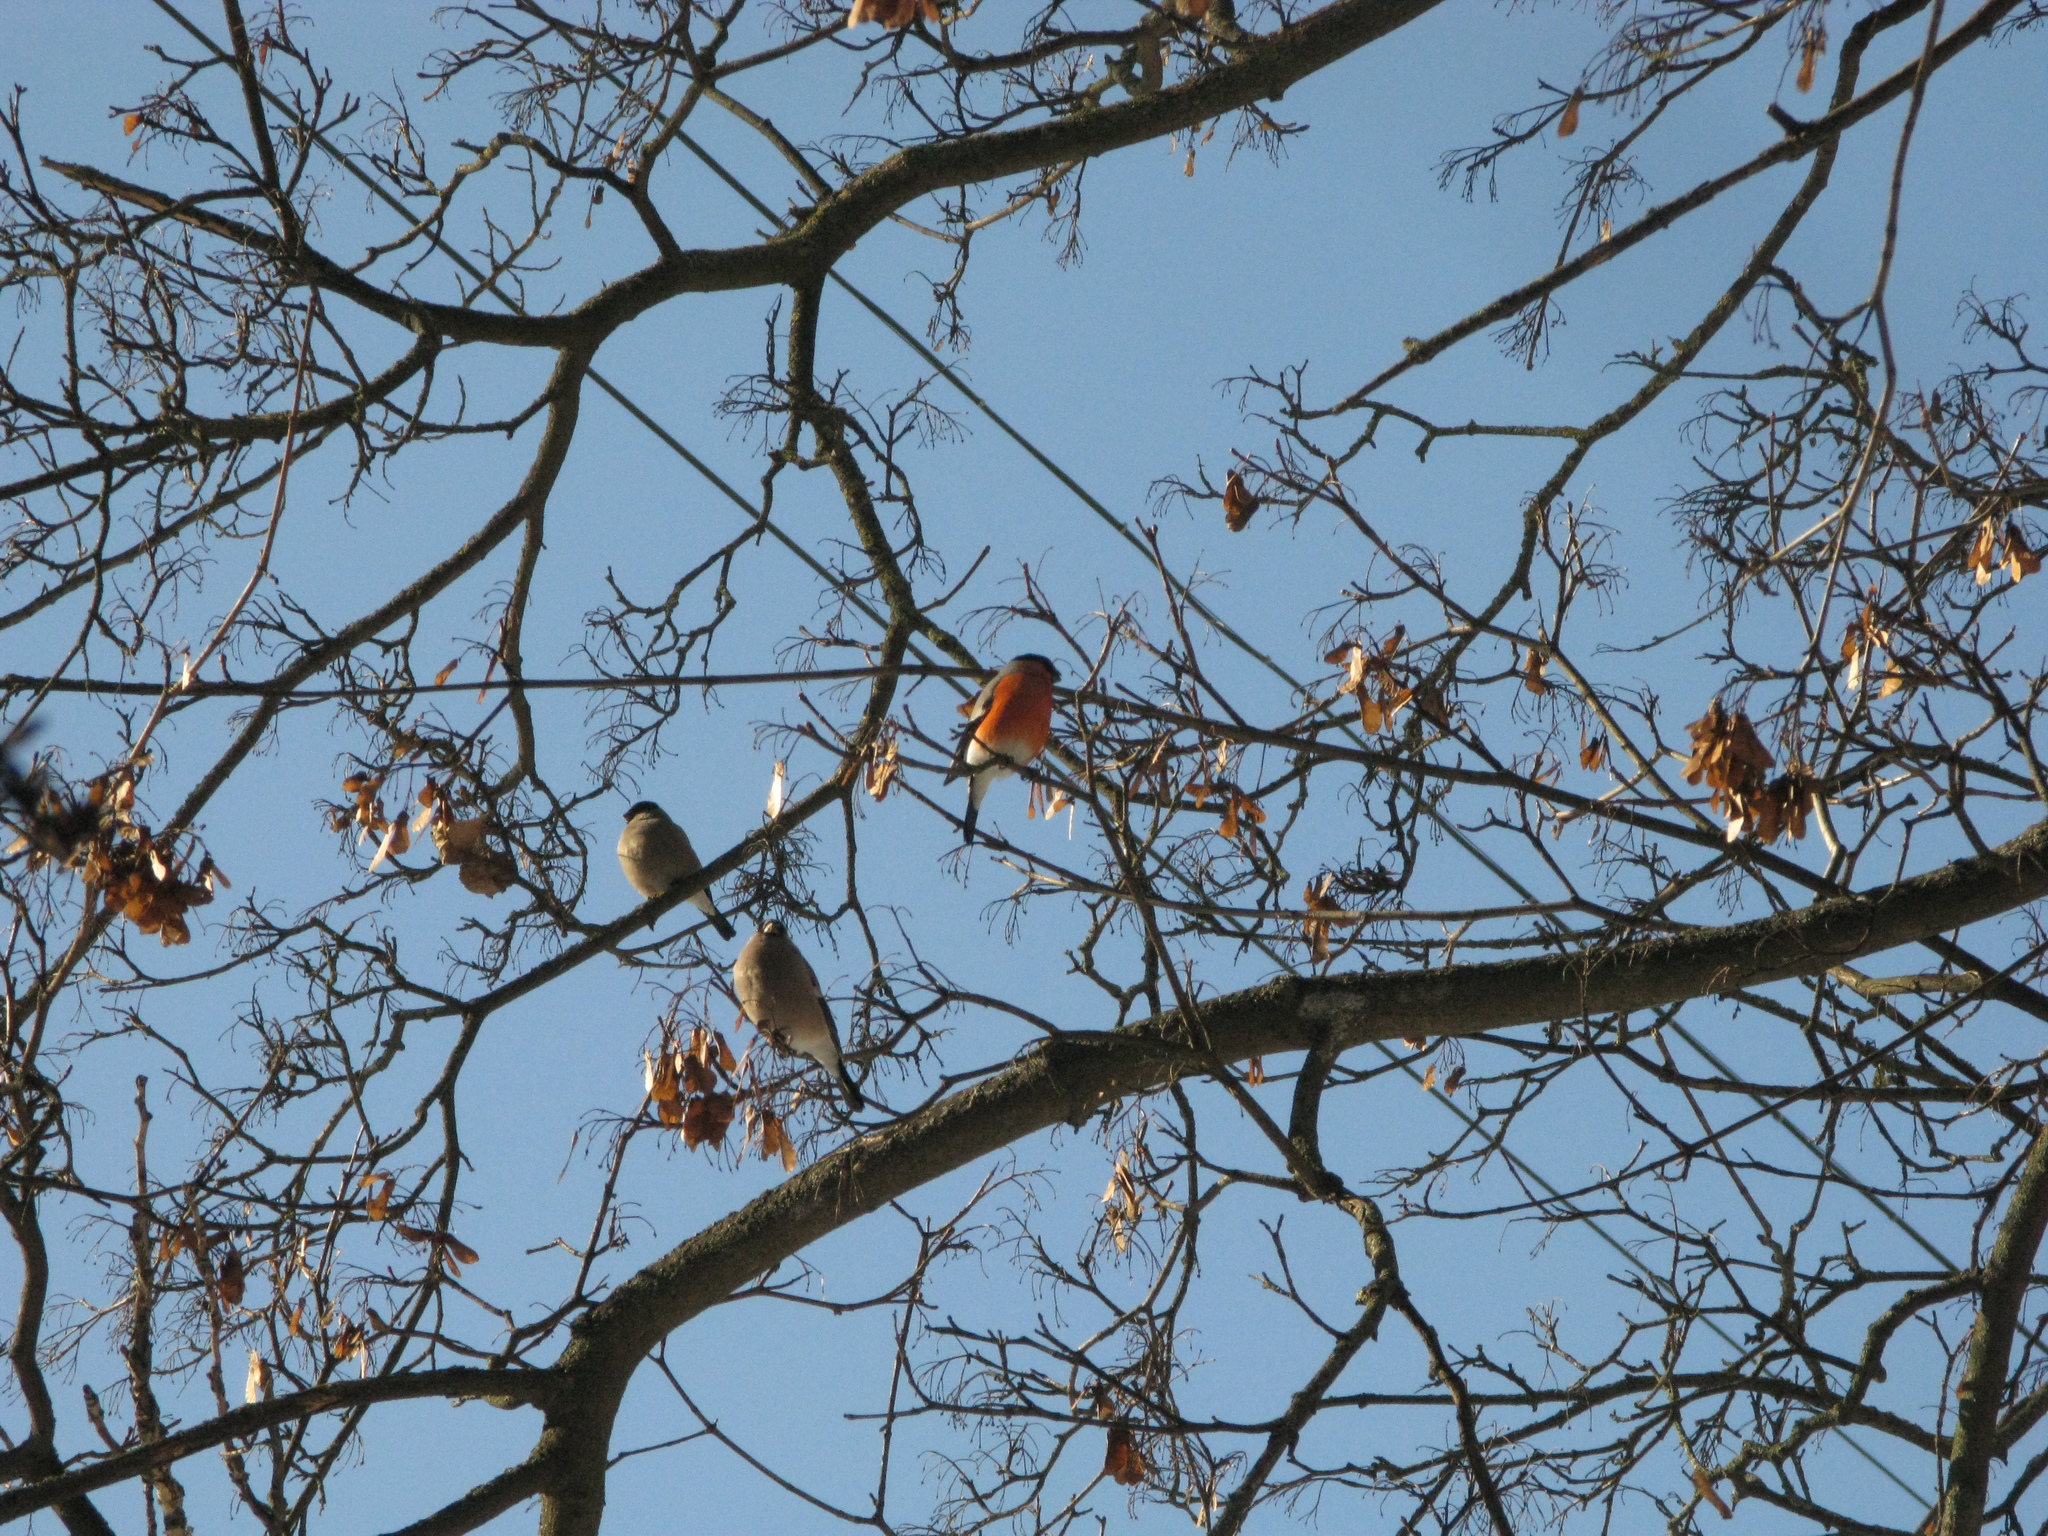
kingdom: Animalia
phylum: Chordata
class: Aves
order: Passeriformes
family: Fringillidae
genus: Pyrrhula
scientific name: Pyrrhula pyrrhula
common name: Eurasian bullfinch
